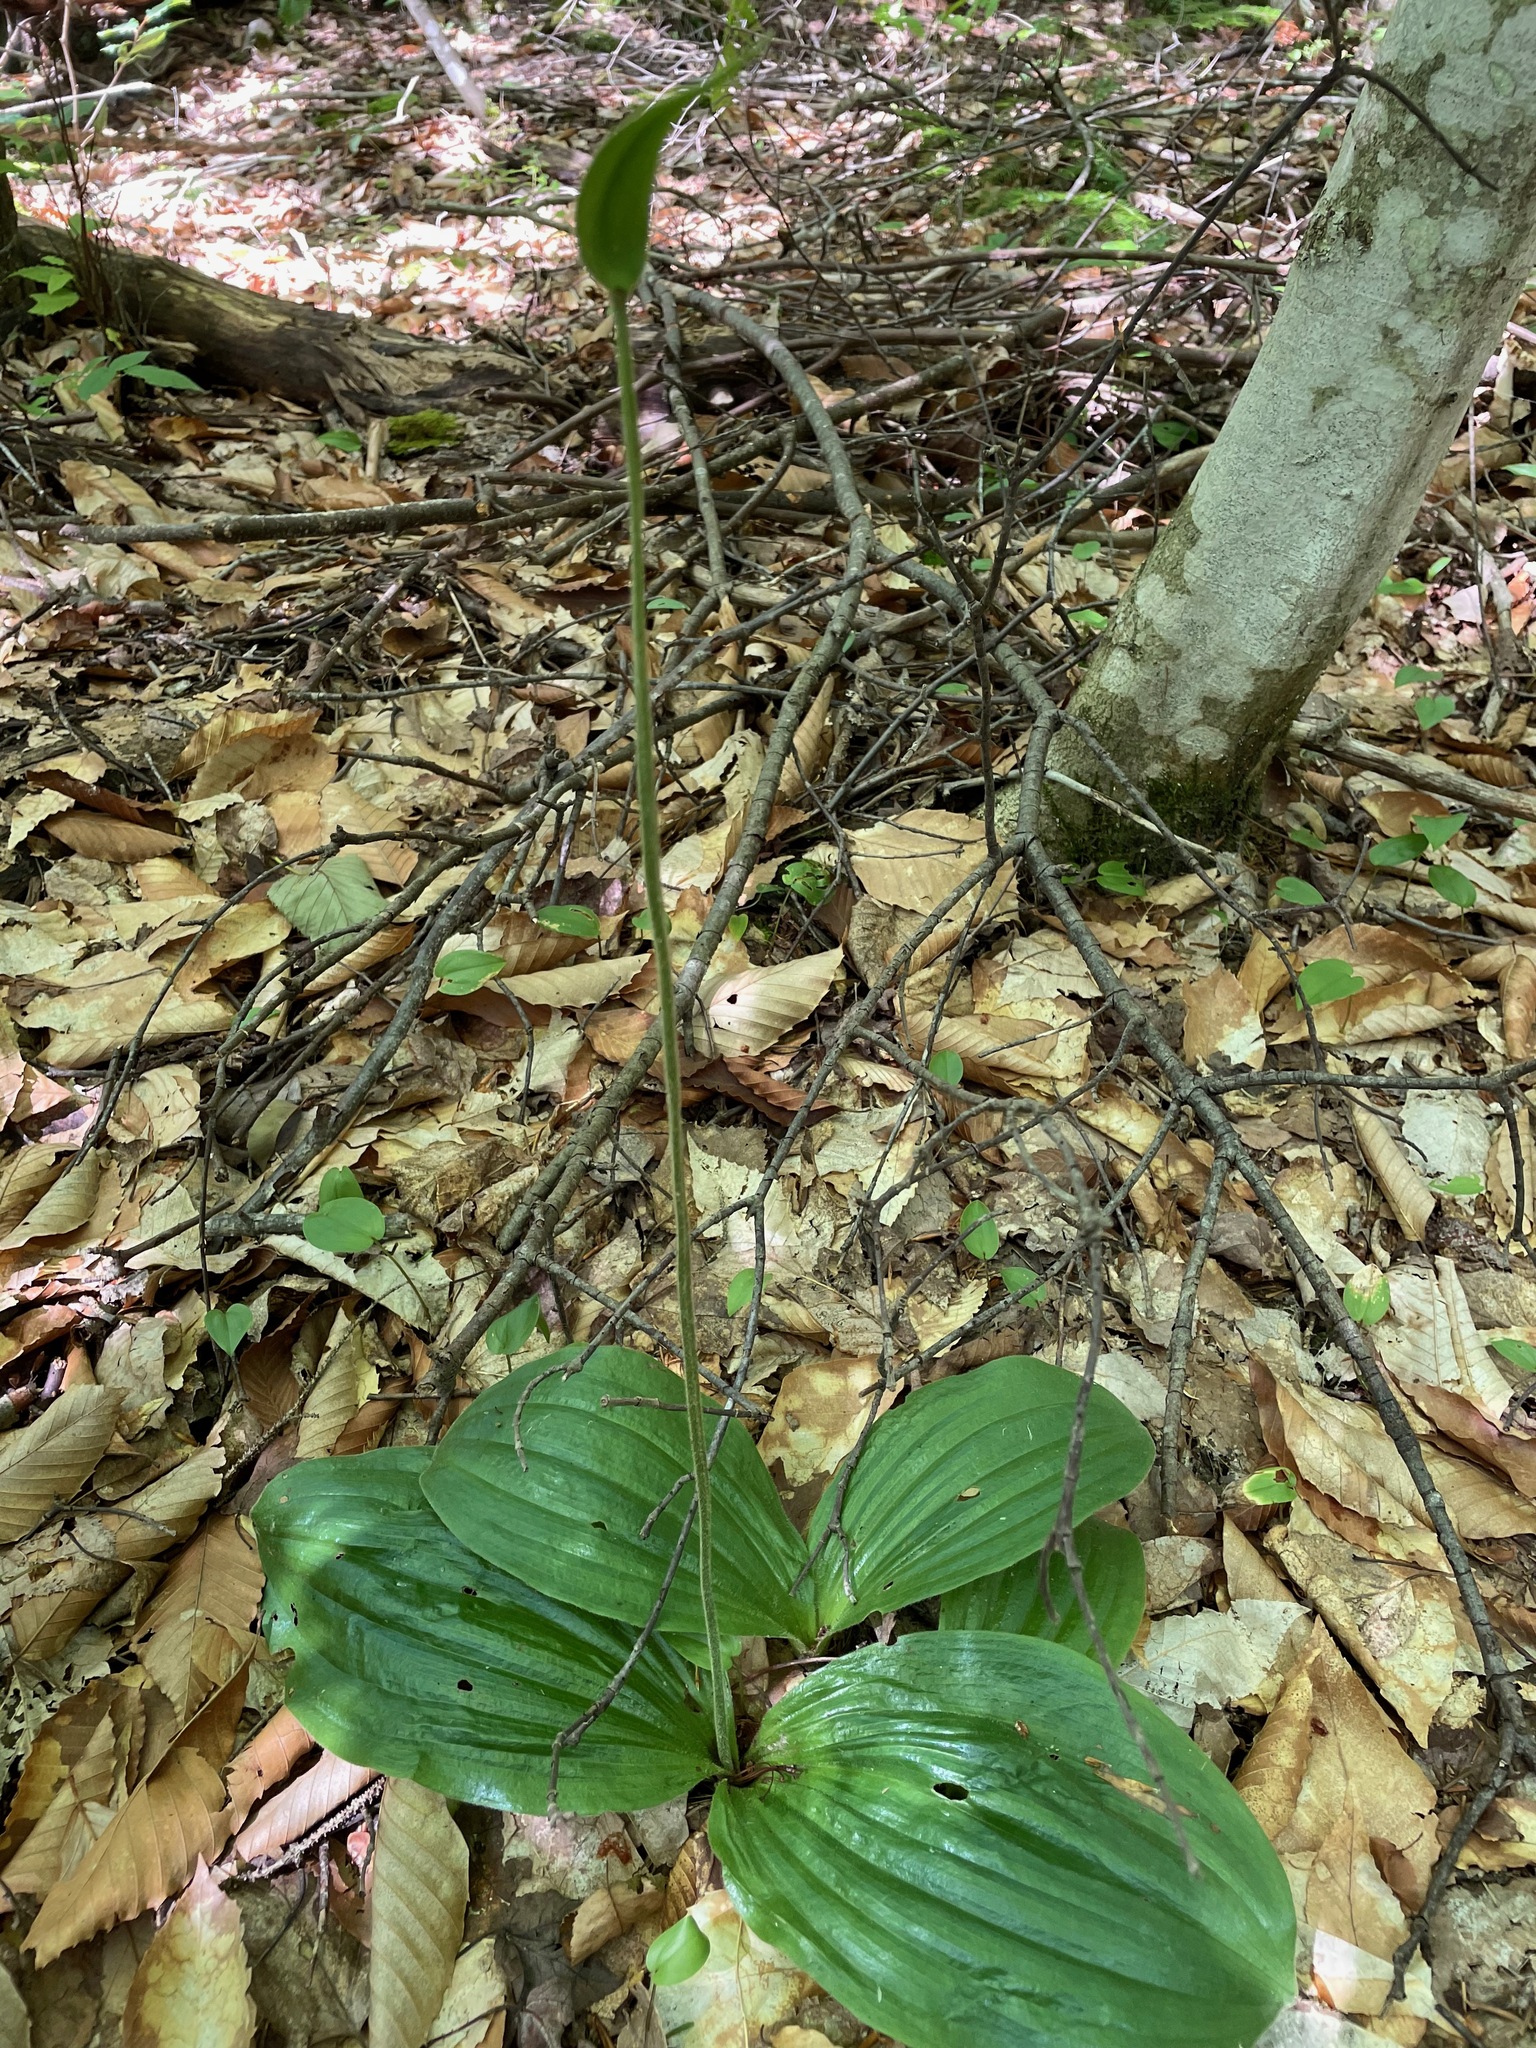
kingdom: Plantae
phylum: Tracheophyta
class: Liliopsida
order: Asparagales
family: Orchidaceae
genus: Cypripedium
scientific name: Cypripedium acaule
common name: Pink lady's-slipper
